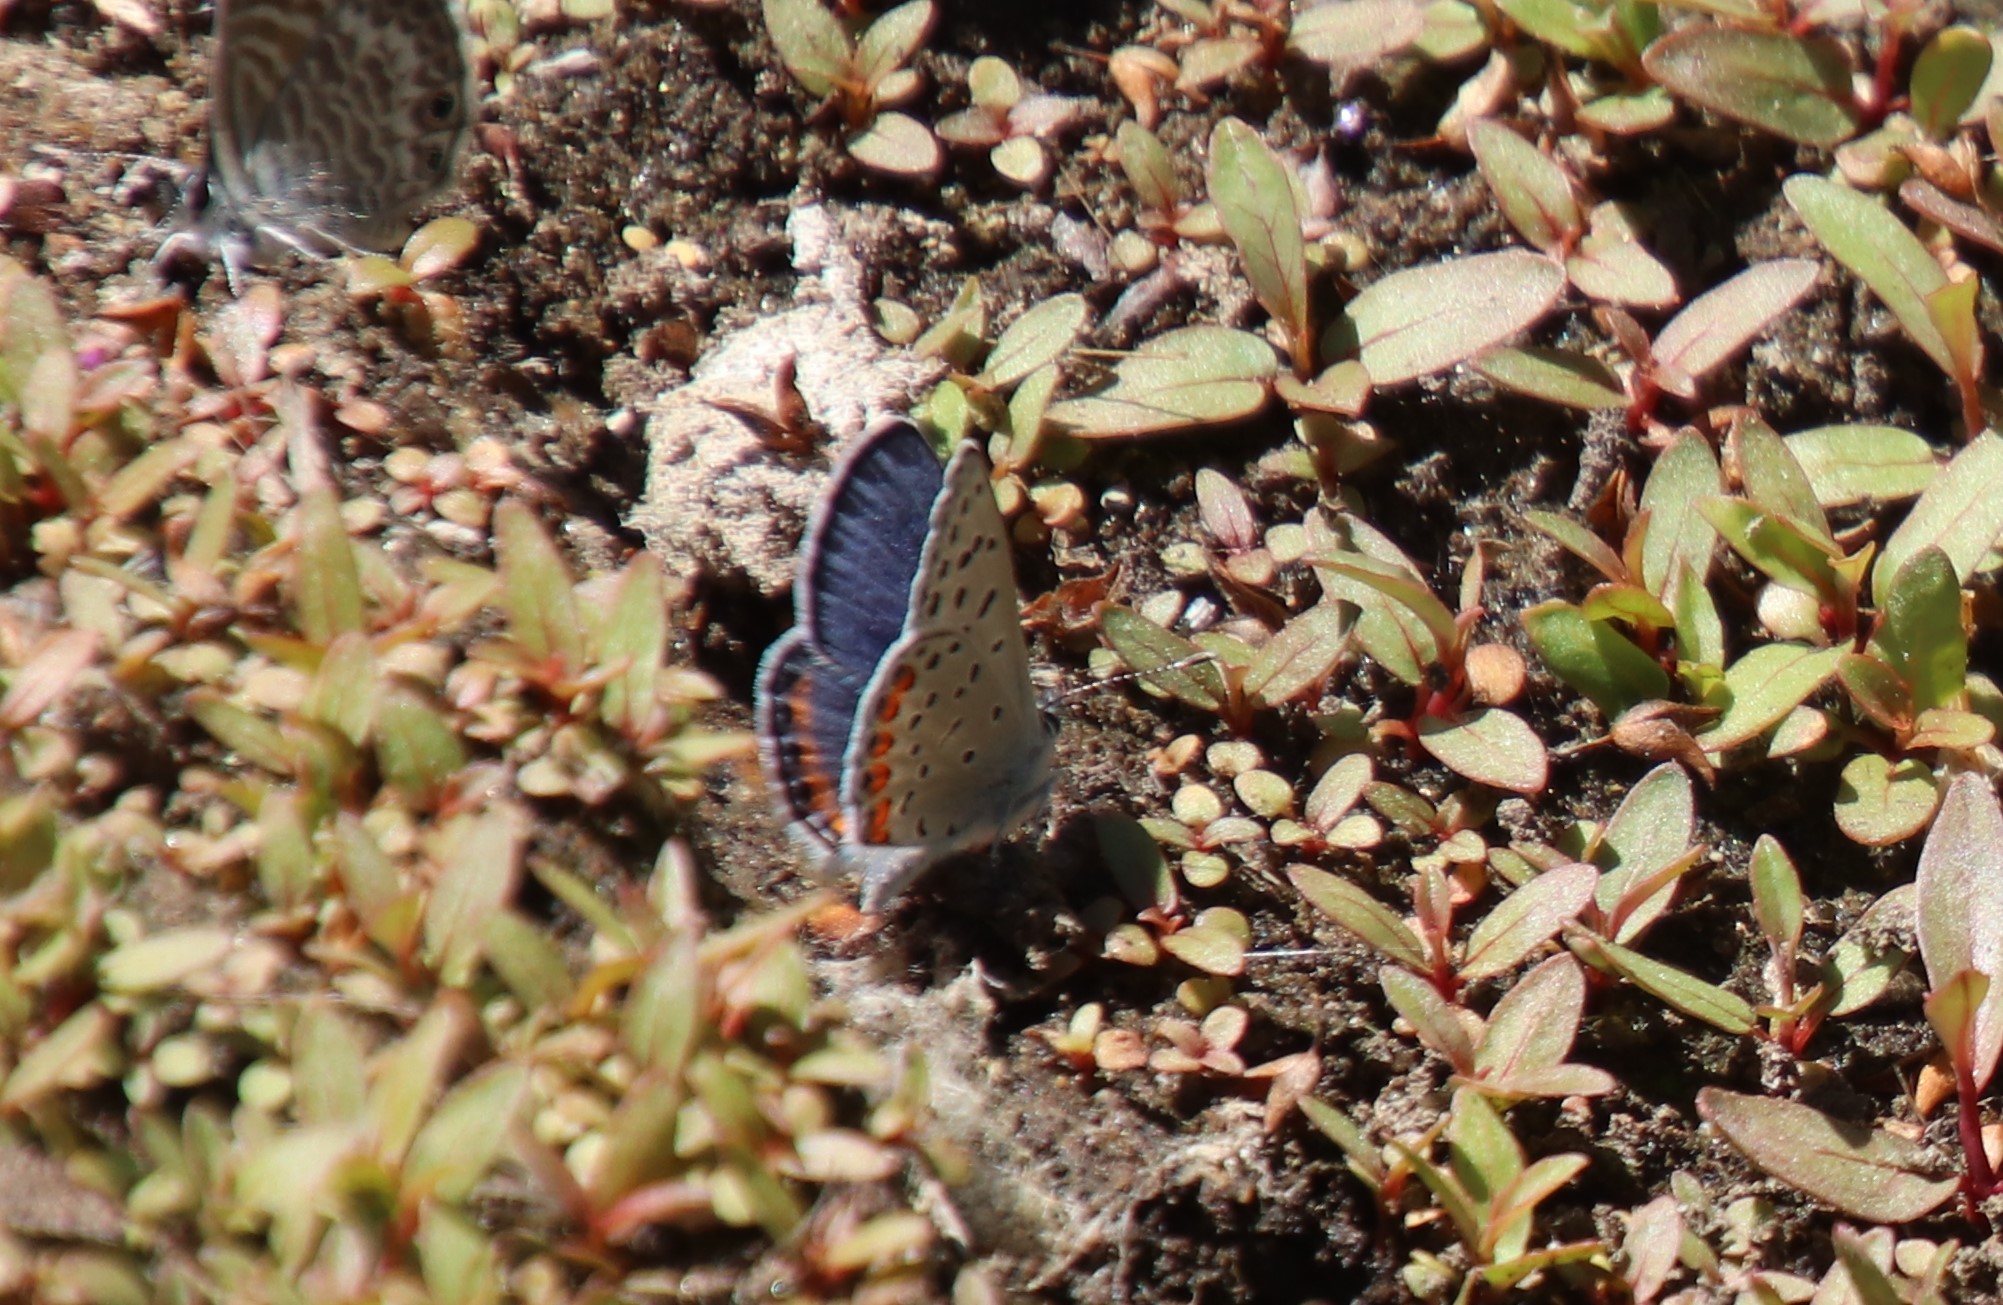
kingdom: Animalia
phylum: Arthropoda
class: Insecta
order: Lepidoptera
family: Lycaenidae
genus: Icaricia
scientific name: Icaricia acmon
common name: Acmon blue
